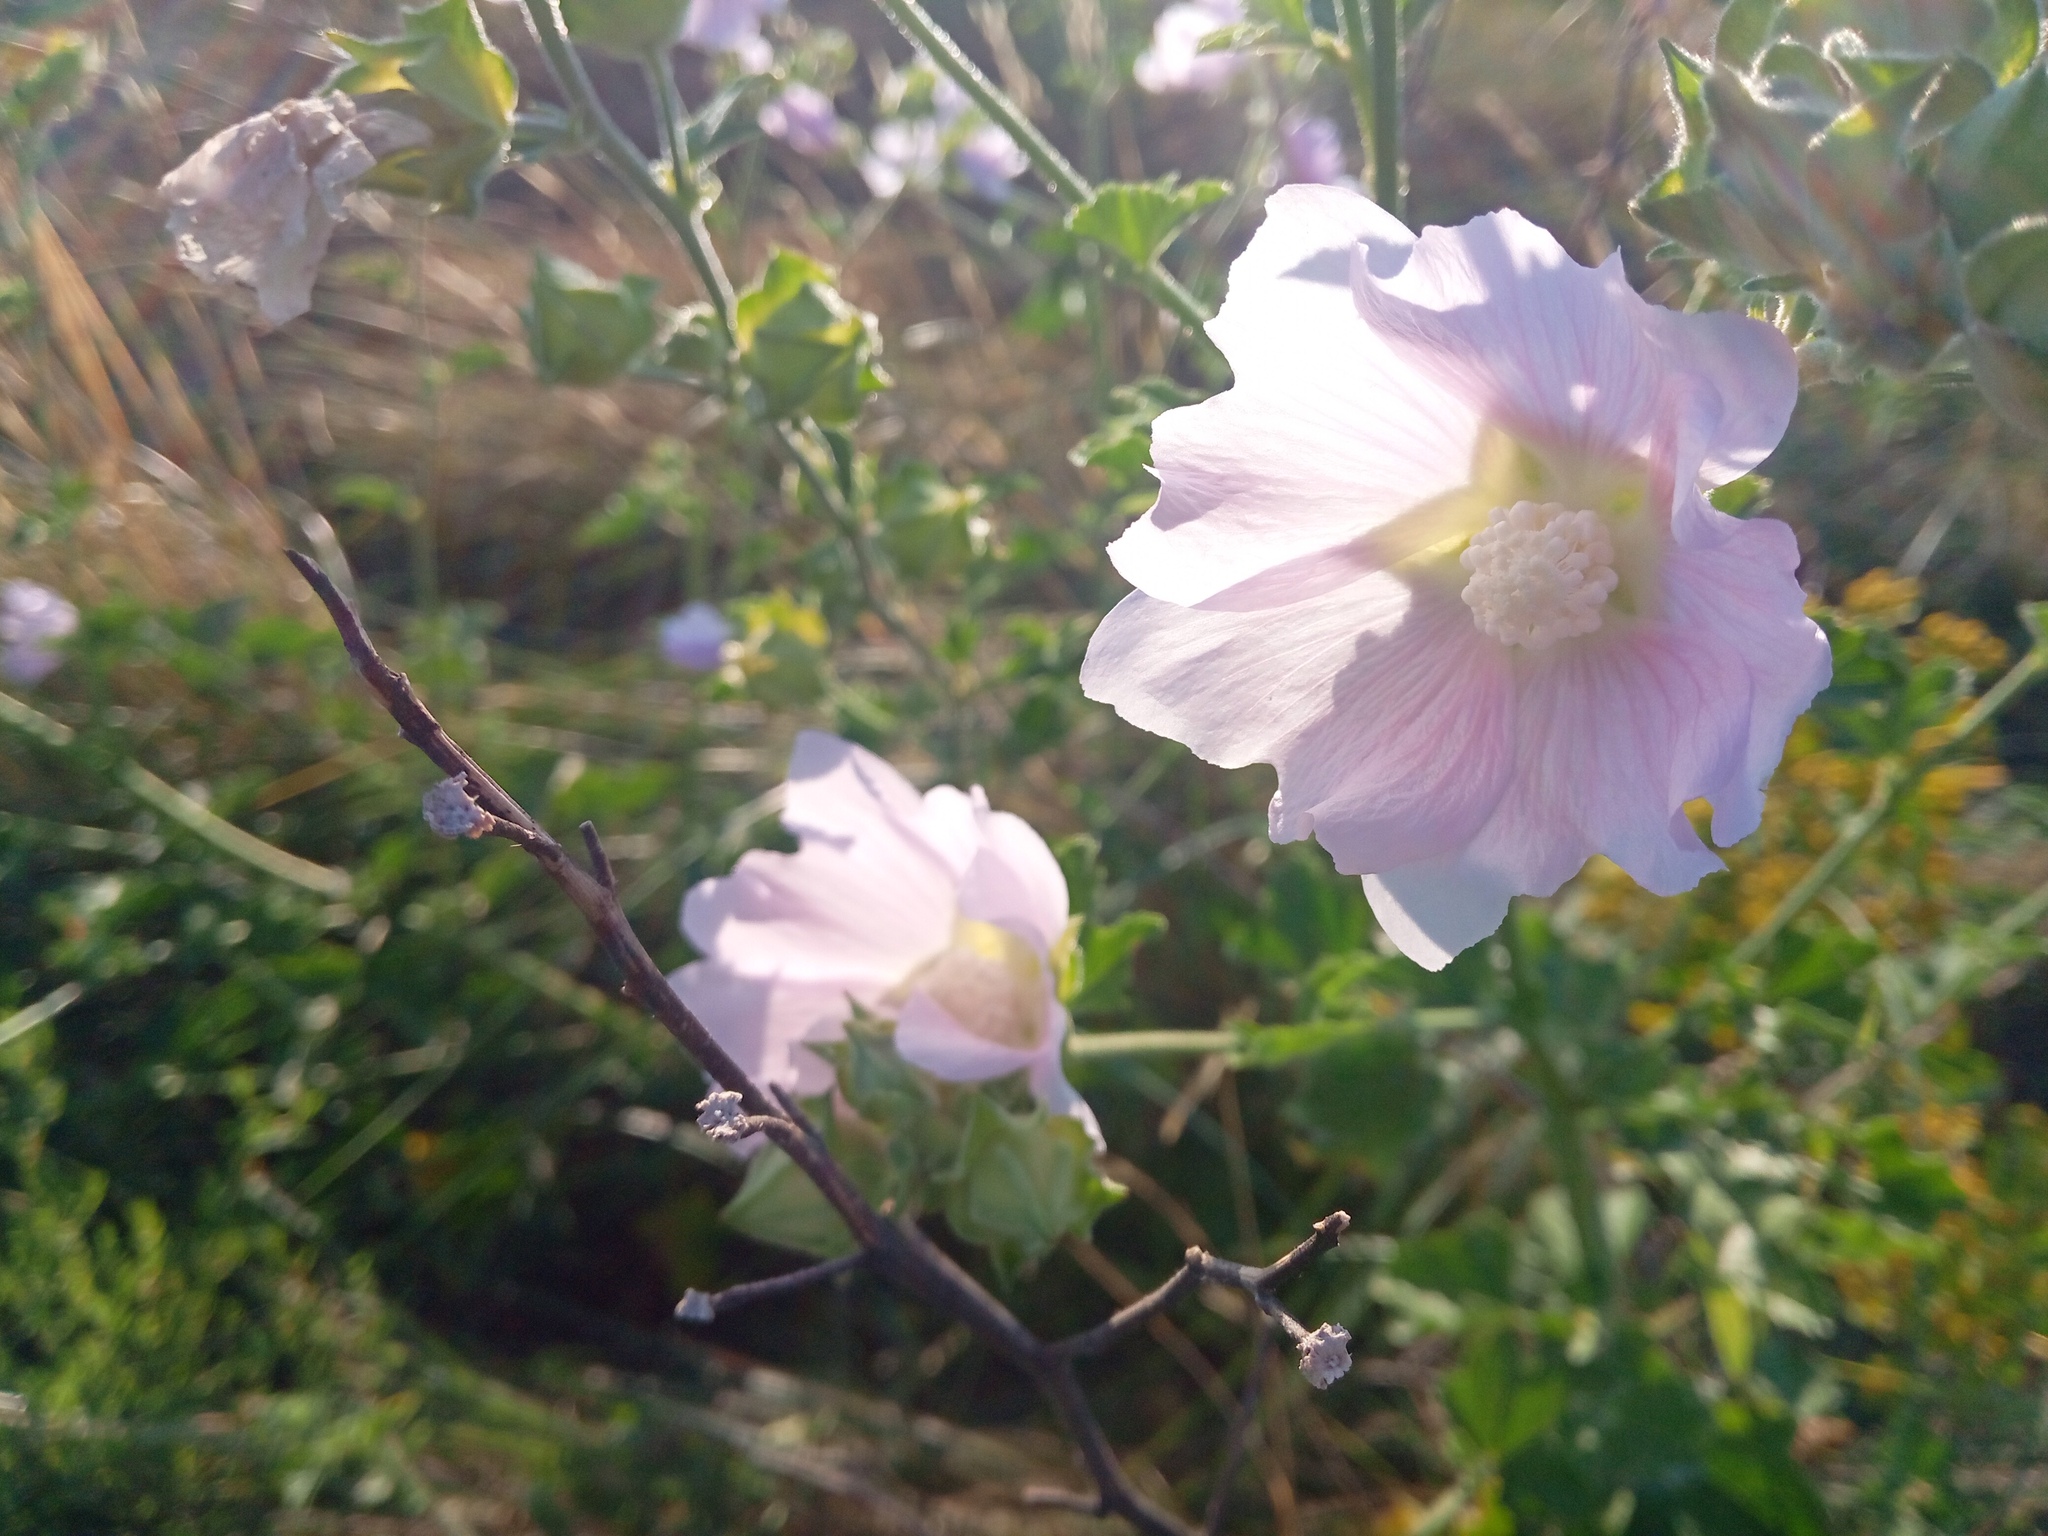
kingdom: Plantae
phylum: Tracheophyta
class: Magnoliopsida
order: Malvales
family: Malvaceae
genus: Malva
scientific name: Malva thuringiaca
